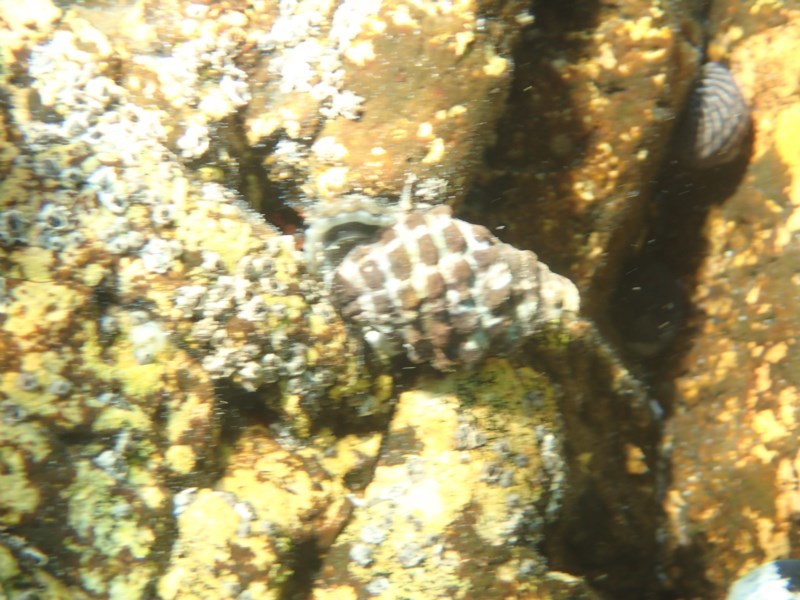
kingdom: Animalia
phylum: Mollusca
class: Gastropoda
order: Neogastropoda
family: Muricidae
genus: Tenguella
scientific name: Tenguella marginalba
